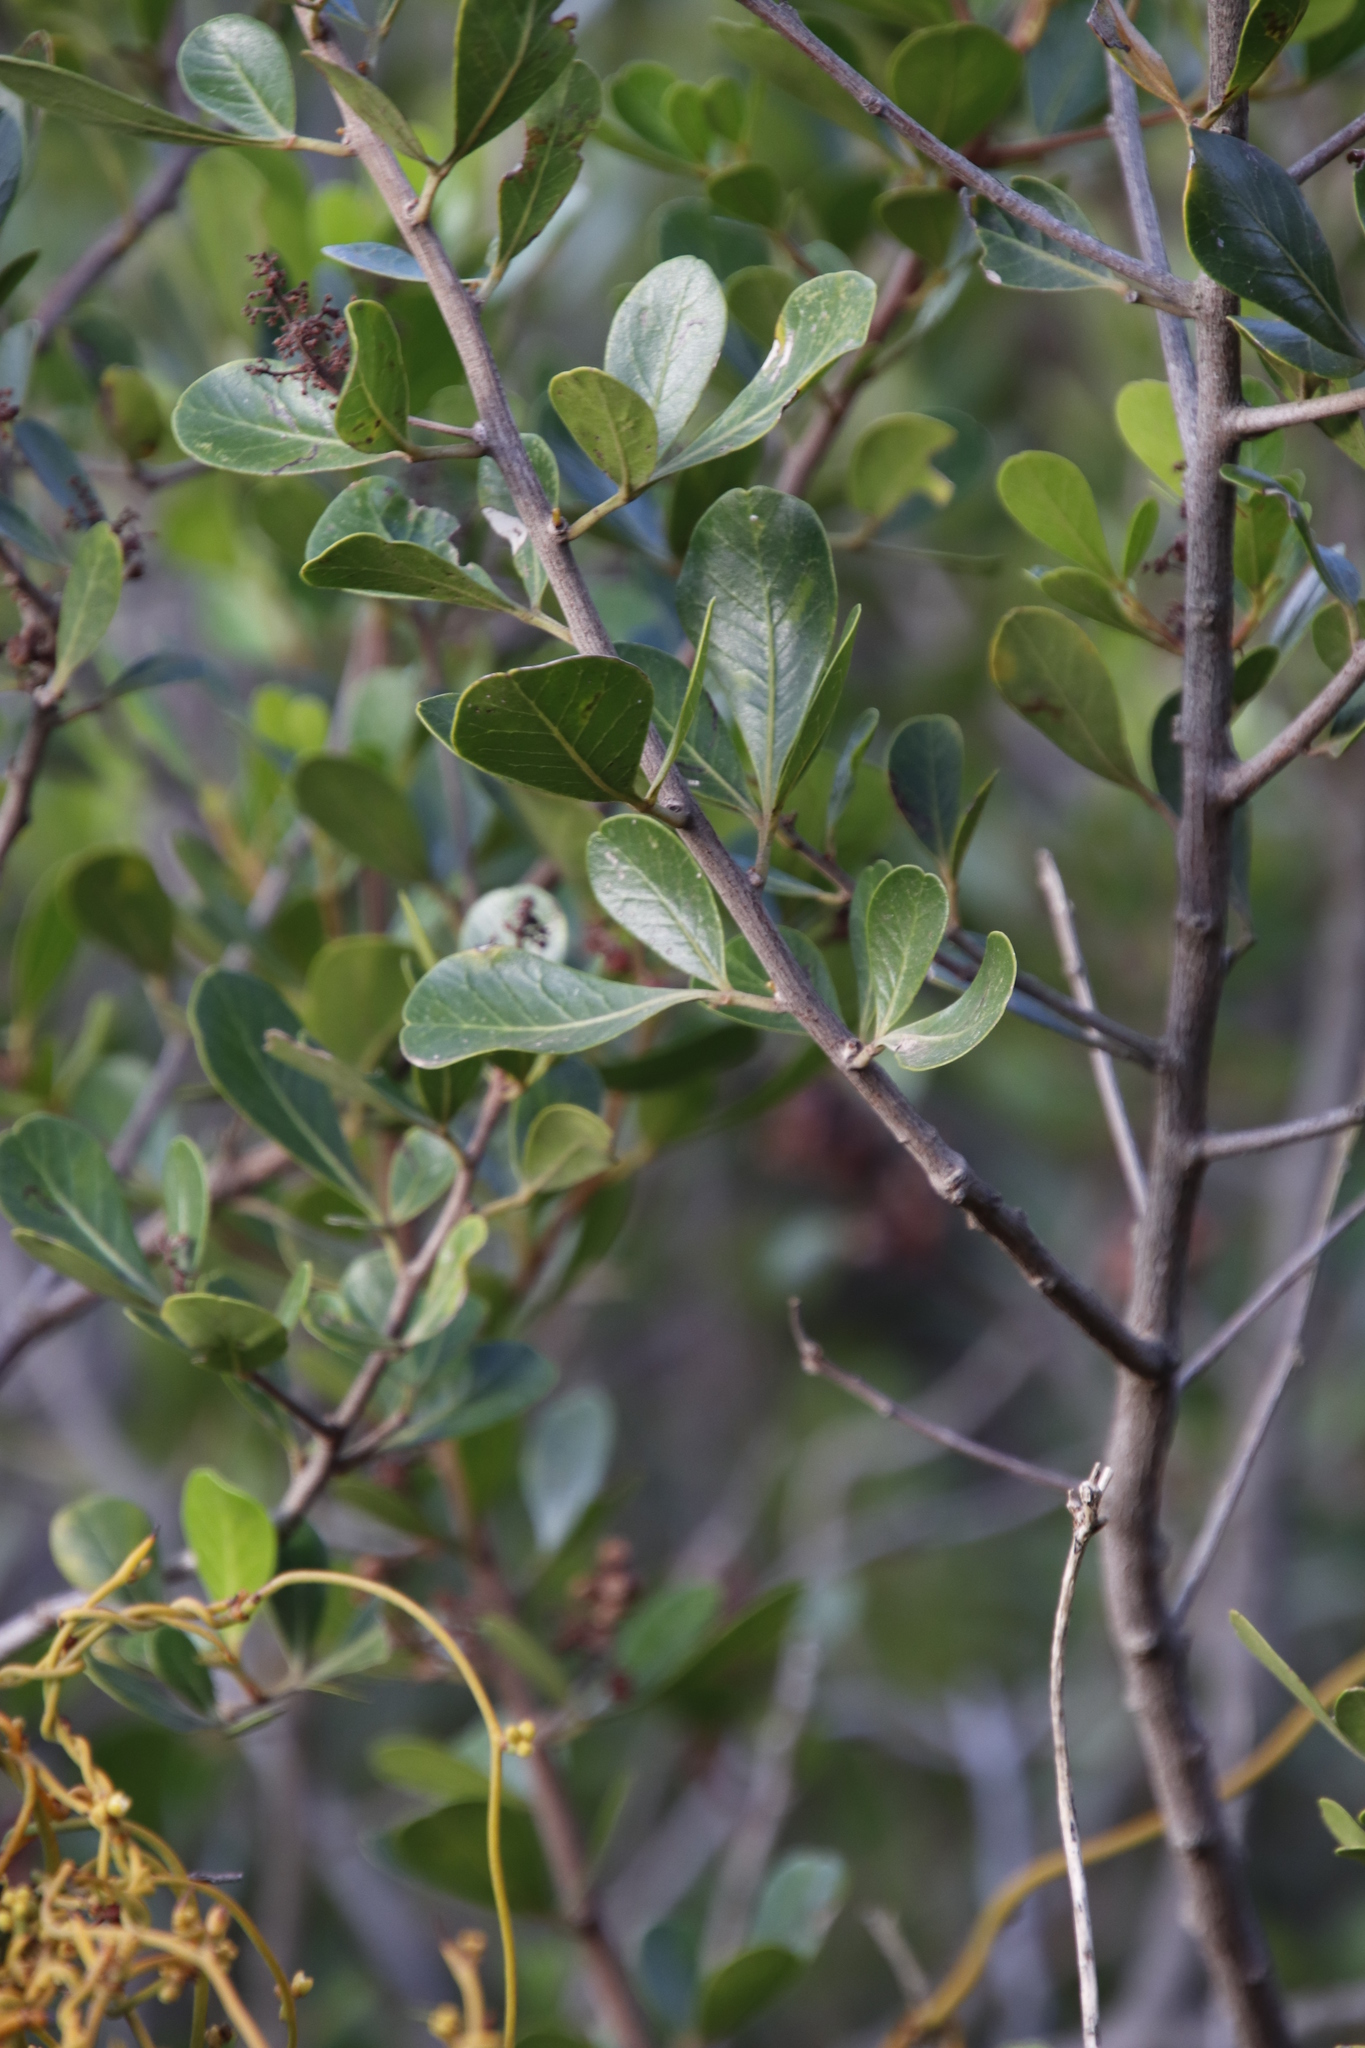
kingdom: Plantae
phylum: Tracheophyta
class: Magnoliopsida
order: Sapindales
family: Anacardiaceae
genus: Searsia
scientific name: Searsia lucida
